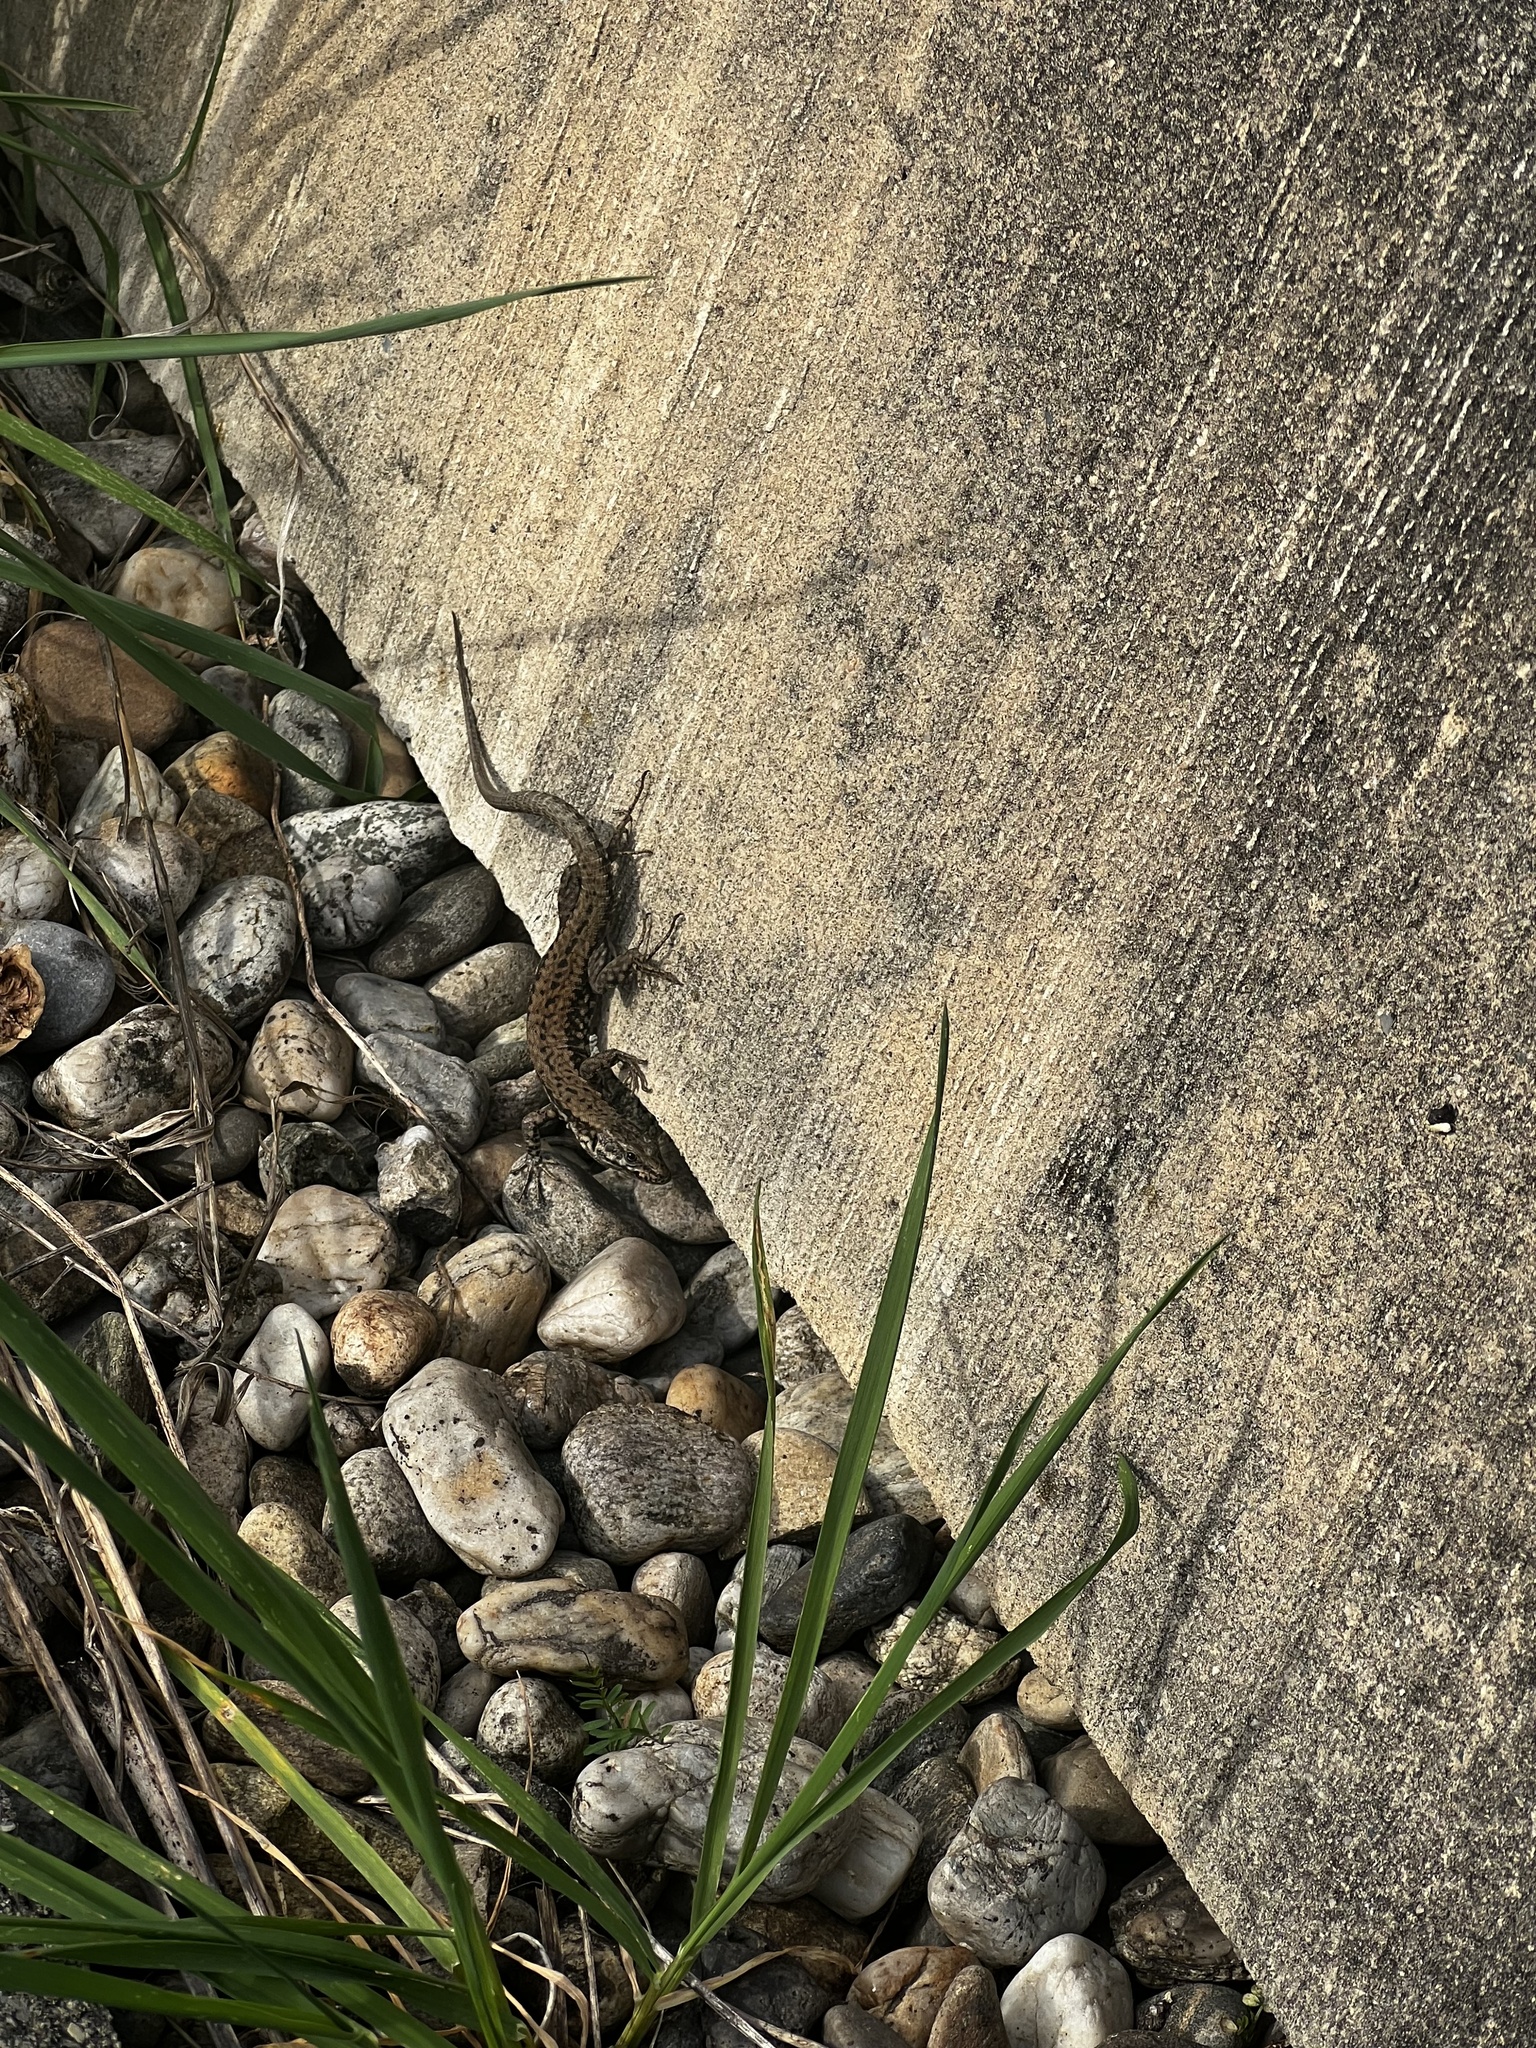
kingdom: Animalia
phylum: Chordata
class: Squamata
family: Lacertidae
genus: Podarcis
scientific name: Podarcis muralis
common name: Common wall lizard
